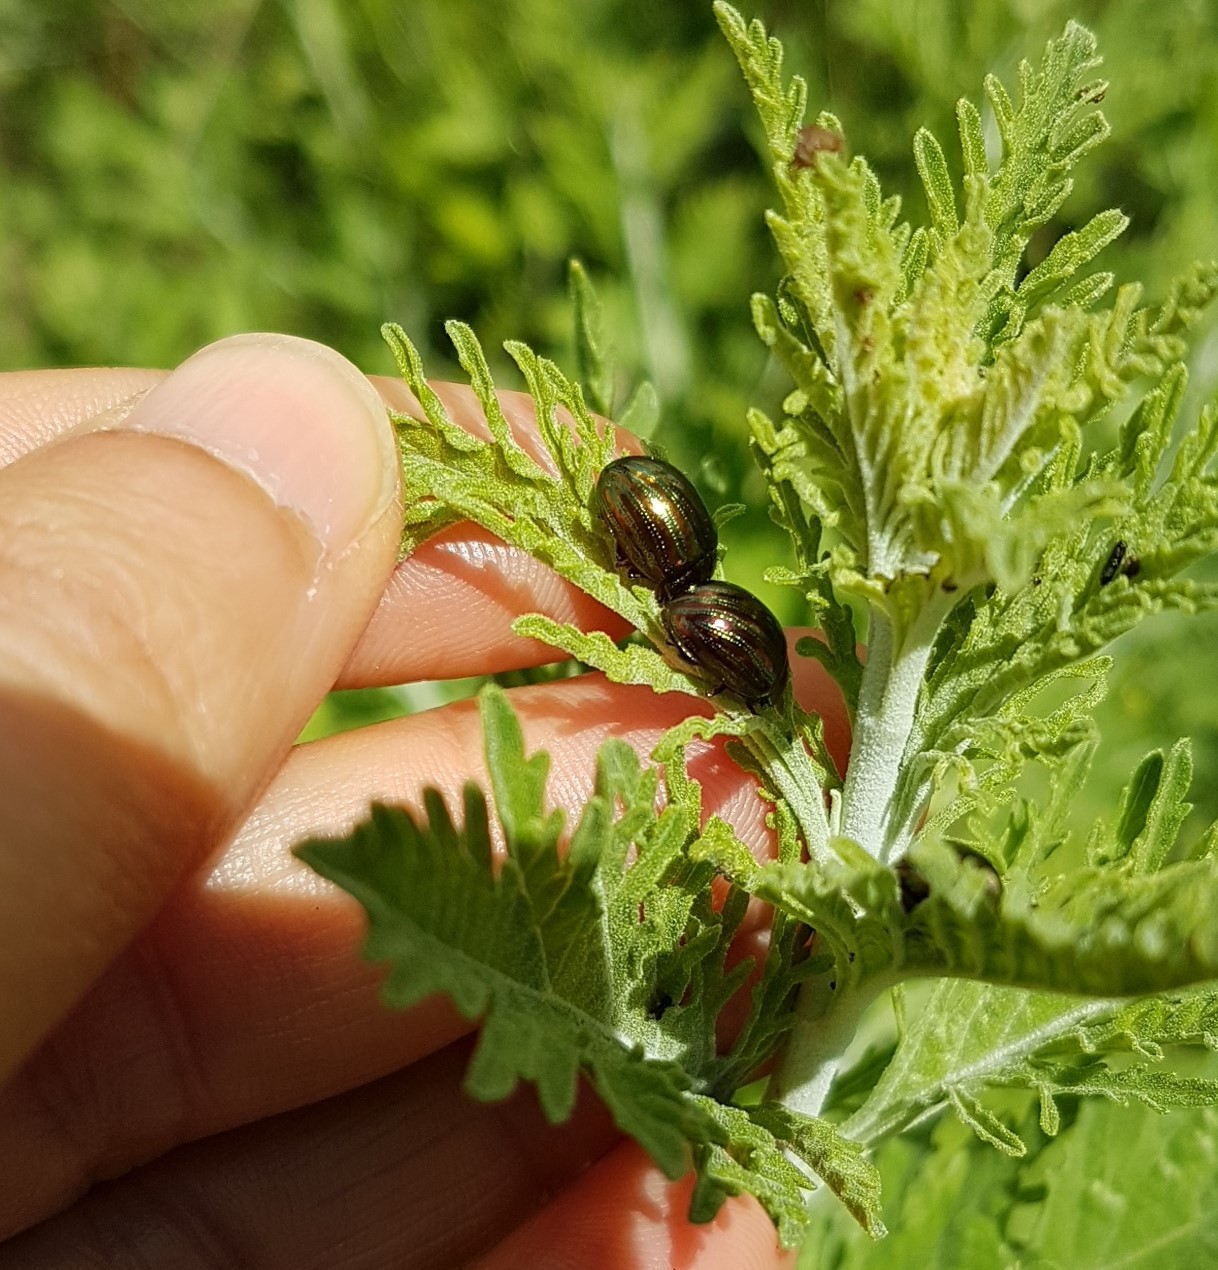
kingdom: Animalia
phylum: Arthropoda
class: Insecta
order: Coleoptera
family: Chrysomelidae
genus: Chrysolina
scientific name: Chrysolina americana
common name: Rosemary beetle
